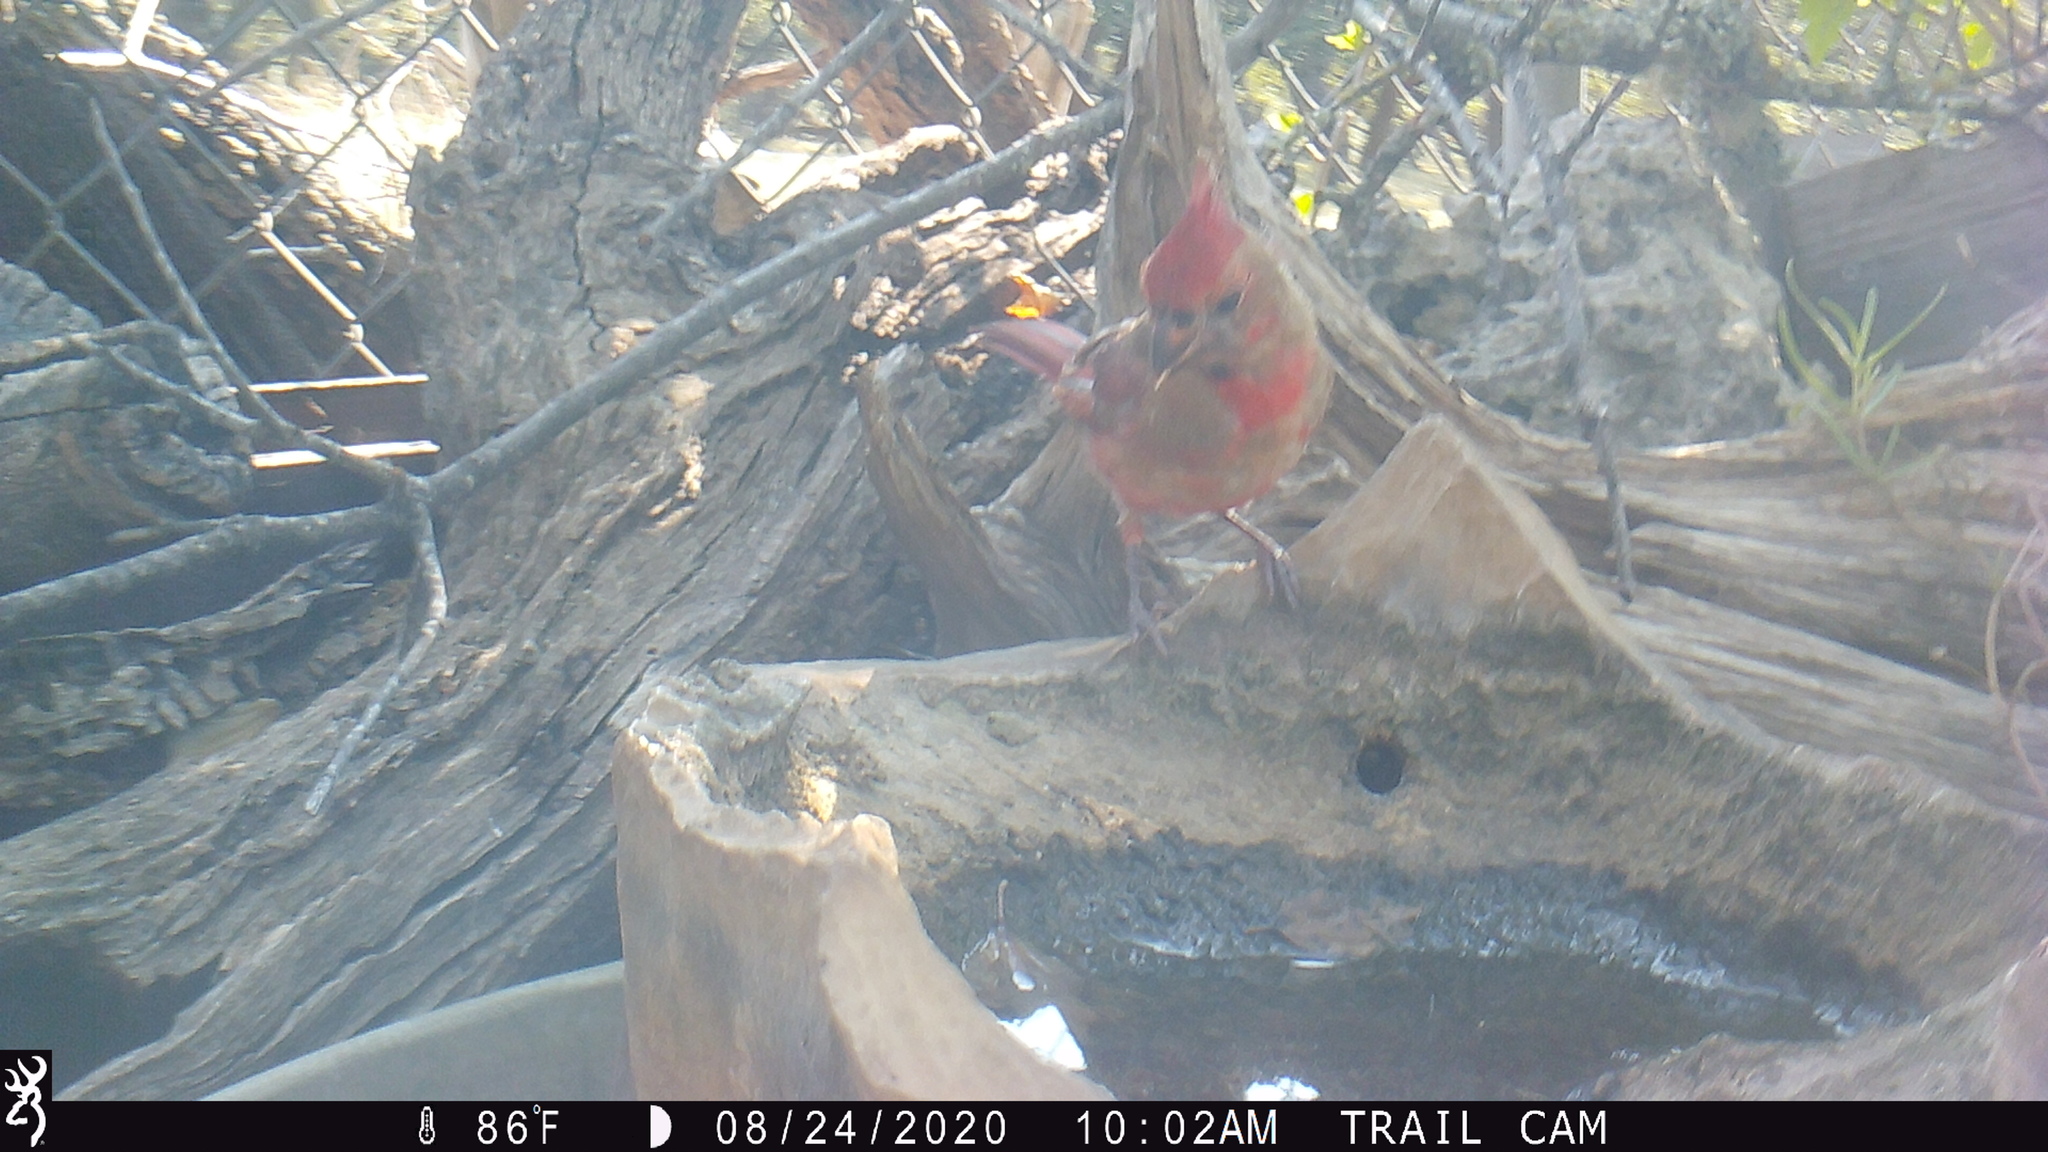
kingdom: Animalia
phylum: Chordata
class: Aves
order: Passeriformes
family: Cardinalidae
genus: Cardinalis
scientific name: Cardinalis cardinalis
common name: Northern cardinal
